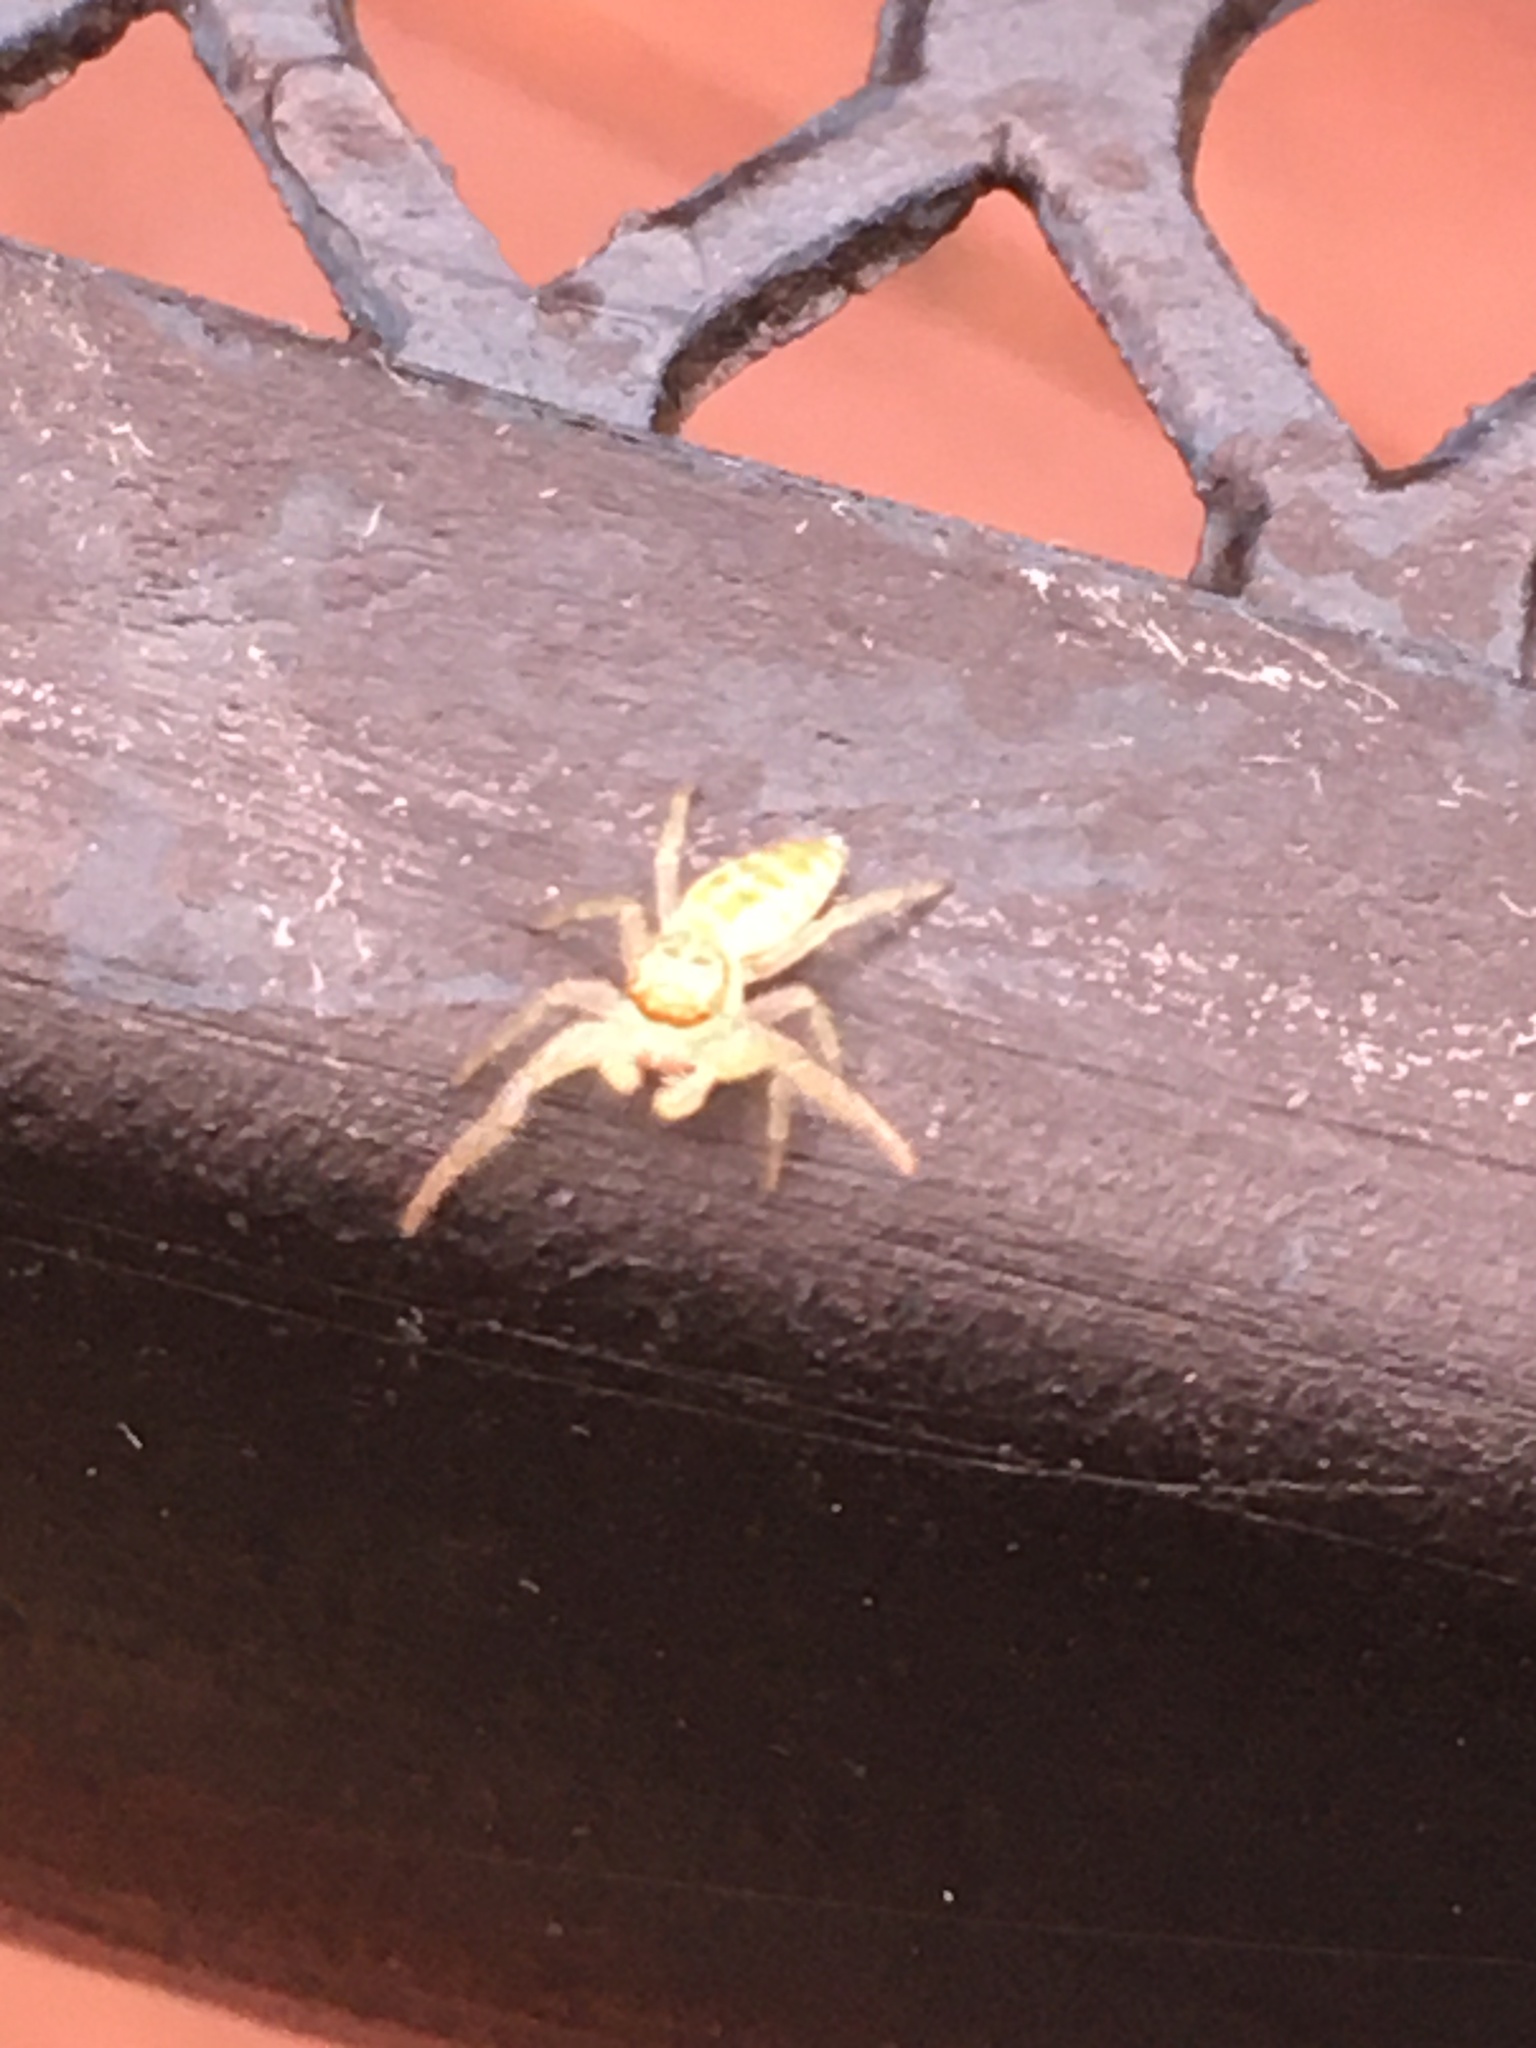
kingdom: Animalia
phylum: Arthropoda
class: Arachnida
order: Araneae
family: Salticidae
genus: Hentzia
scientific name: Hentzia
